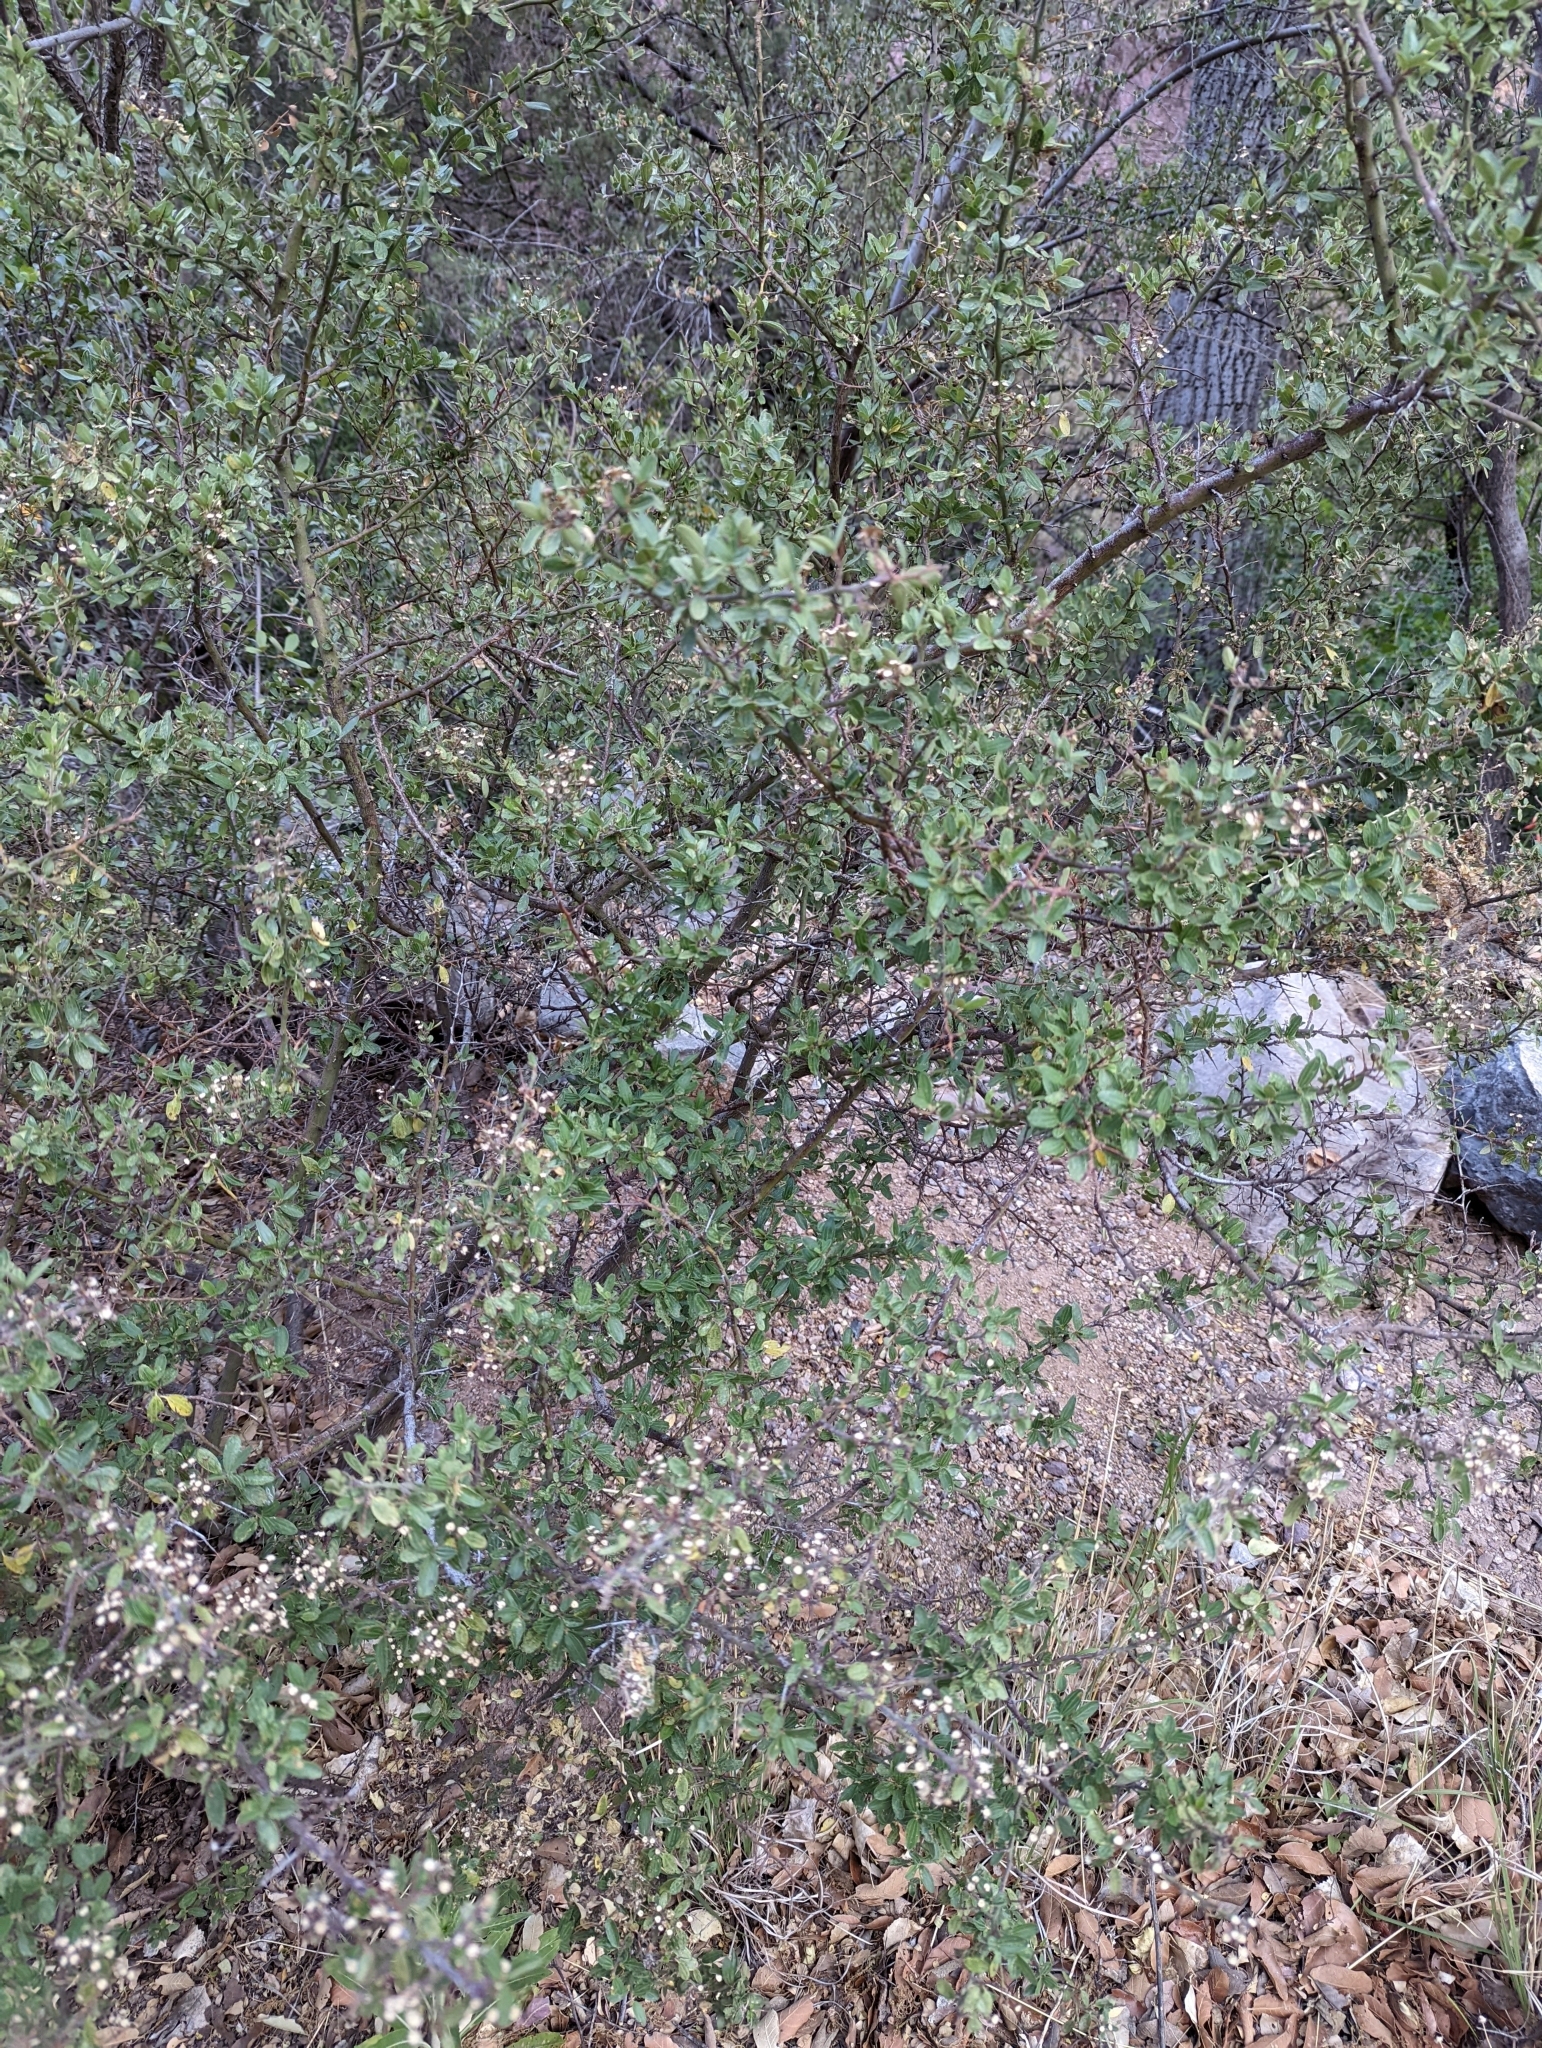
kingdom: Plantae
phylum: Tracheophyta
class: Magnoliopsida
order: Rosales
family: Rhamnaceae
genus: Ceanothus
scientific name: Ceanothus fendleri
